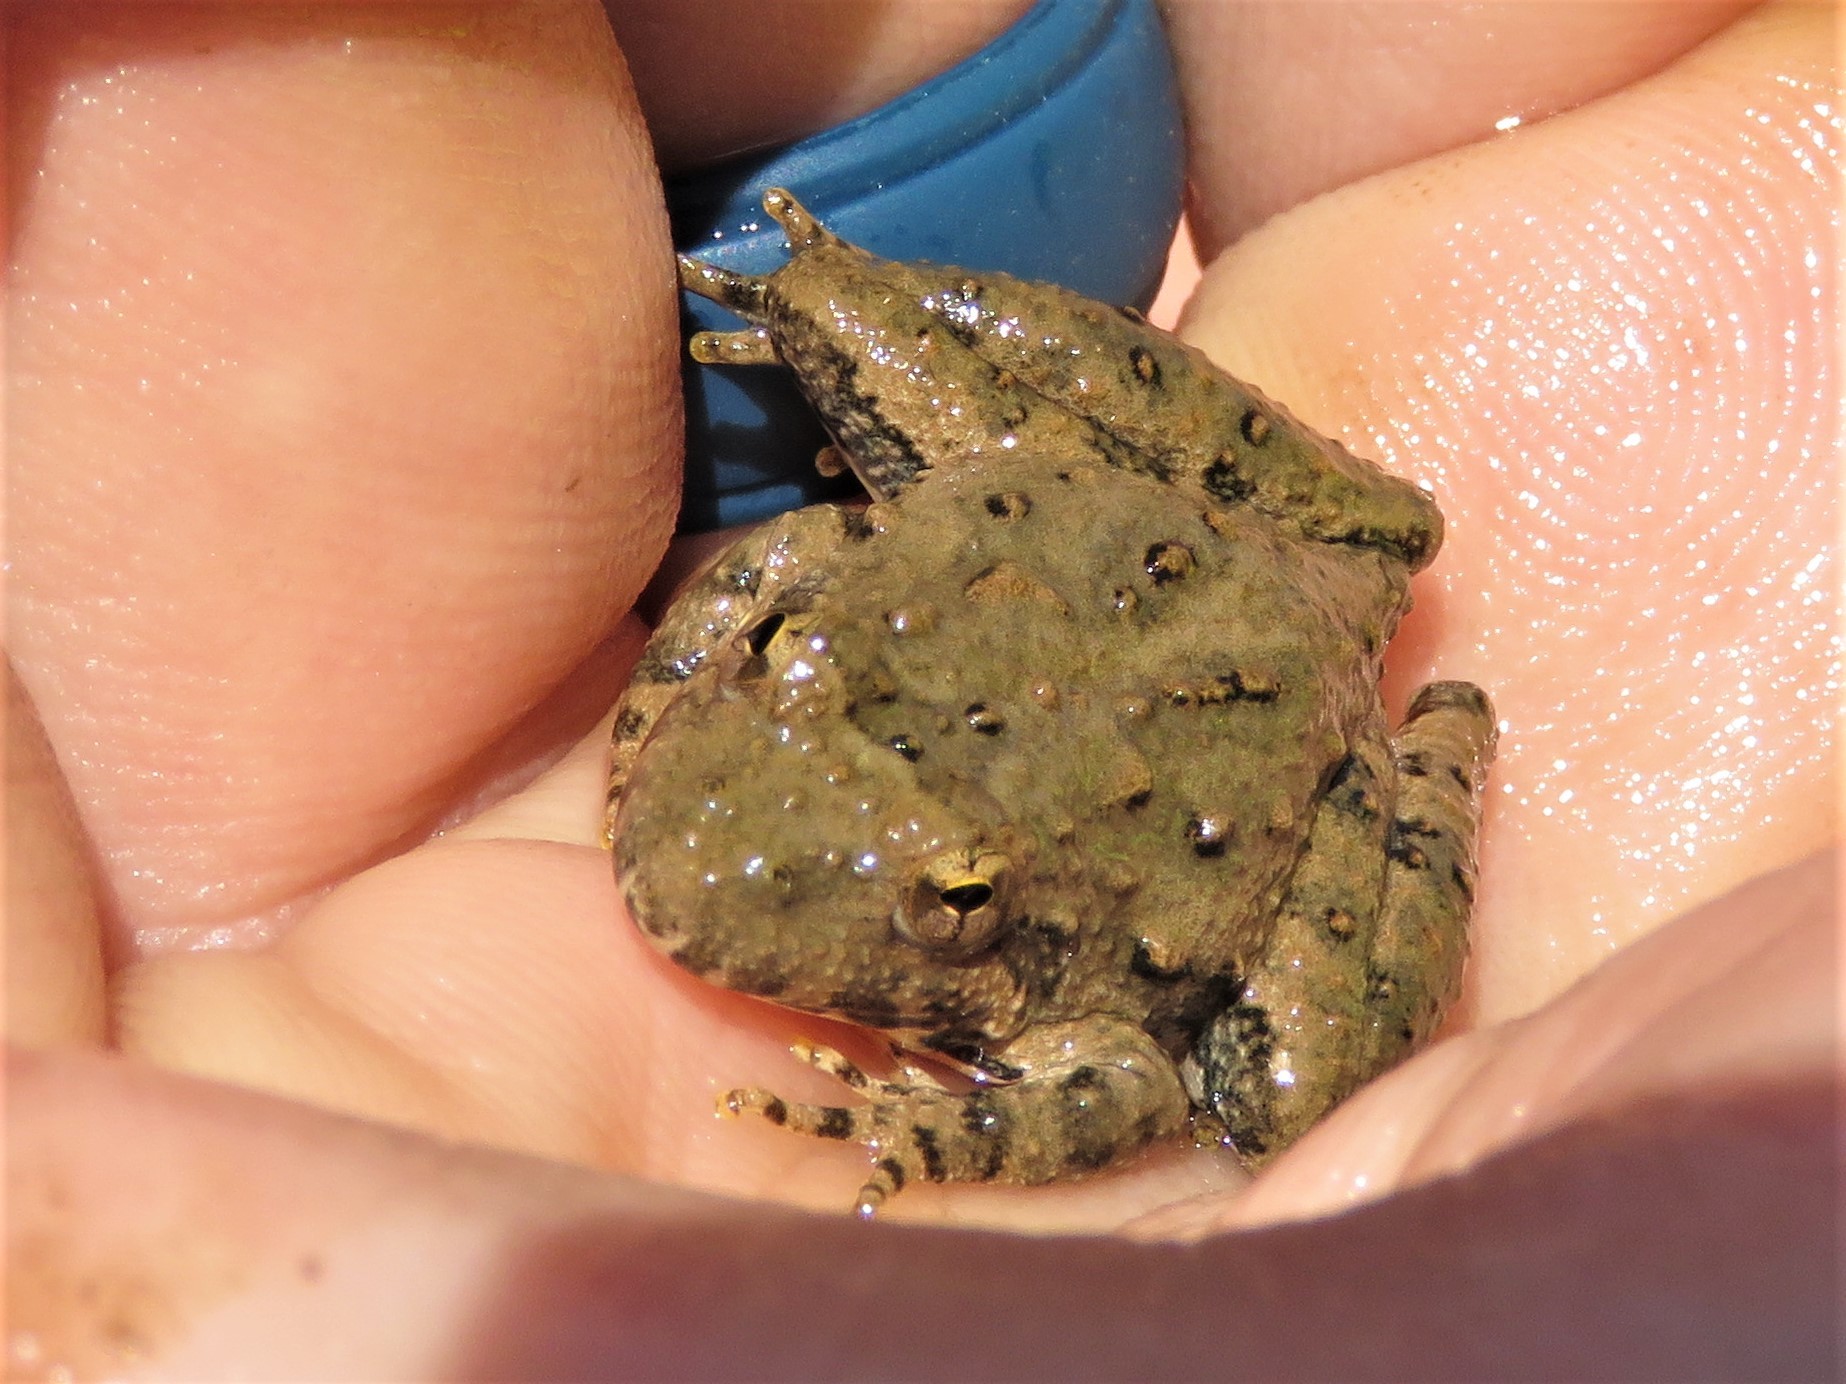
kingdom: Animalia
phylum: Chordata
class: Amphibia
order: Anura
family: Hylidae
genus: Acris
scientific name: Acris blanchardi
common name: Blanchard's cricket frog
